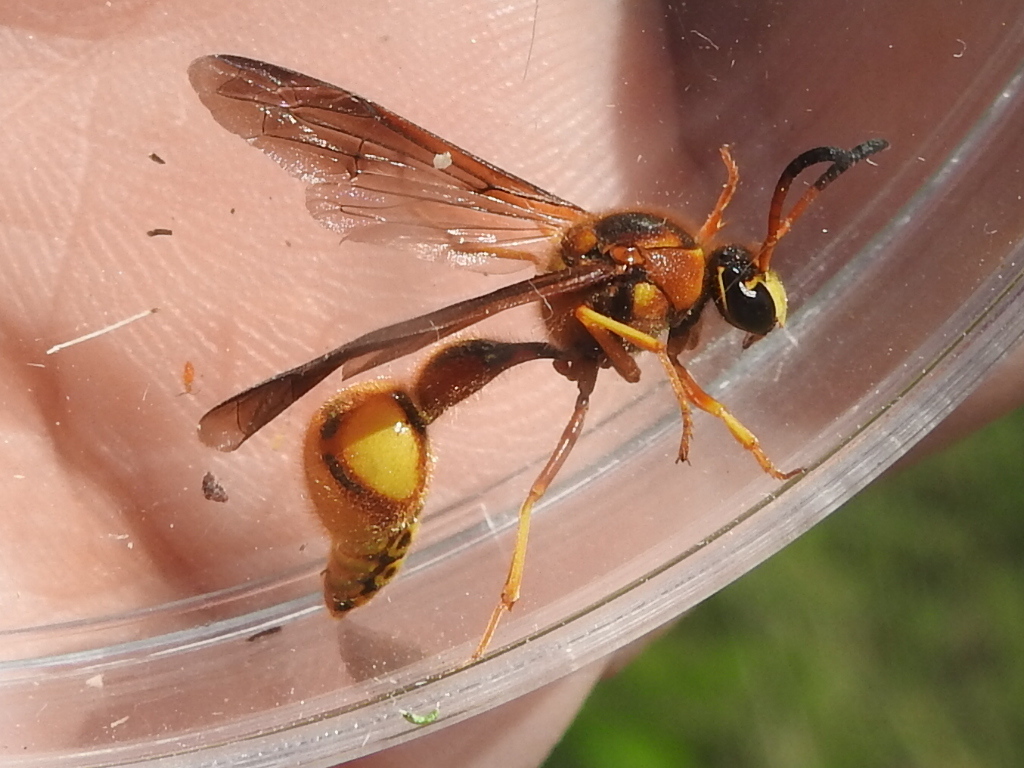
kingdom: Animalia
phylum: Arthropoda
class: Insecta
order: Hymenoptera
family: Vespidae
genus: Eumenes
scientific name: Eumenes bollii
